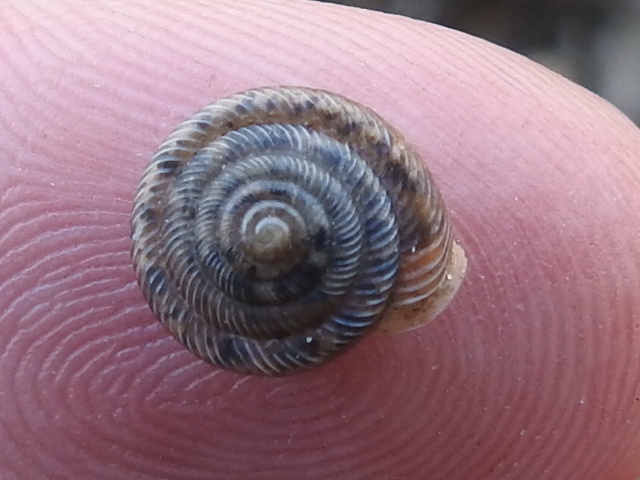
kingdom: Animalia
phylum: Mollusca
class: Gastropoda
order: Stylommatophora
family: Polygyridae
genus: Polygyra
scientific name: Polygyra cereolus
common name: Southern flatcone snail
